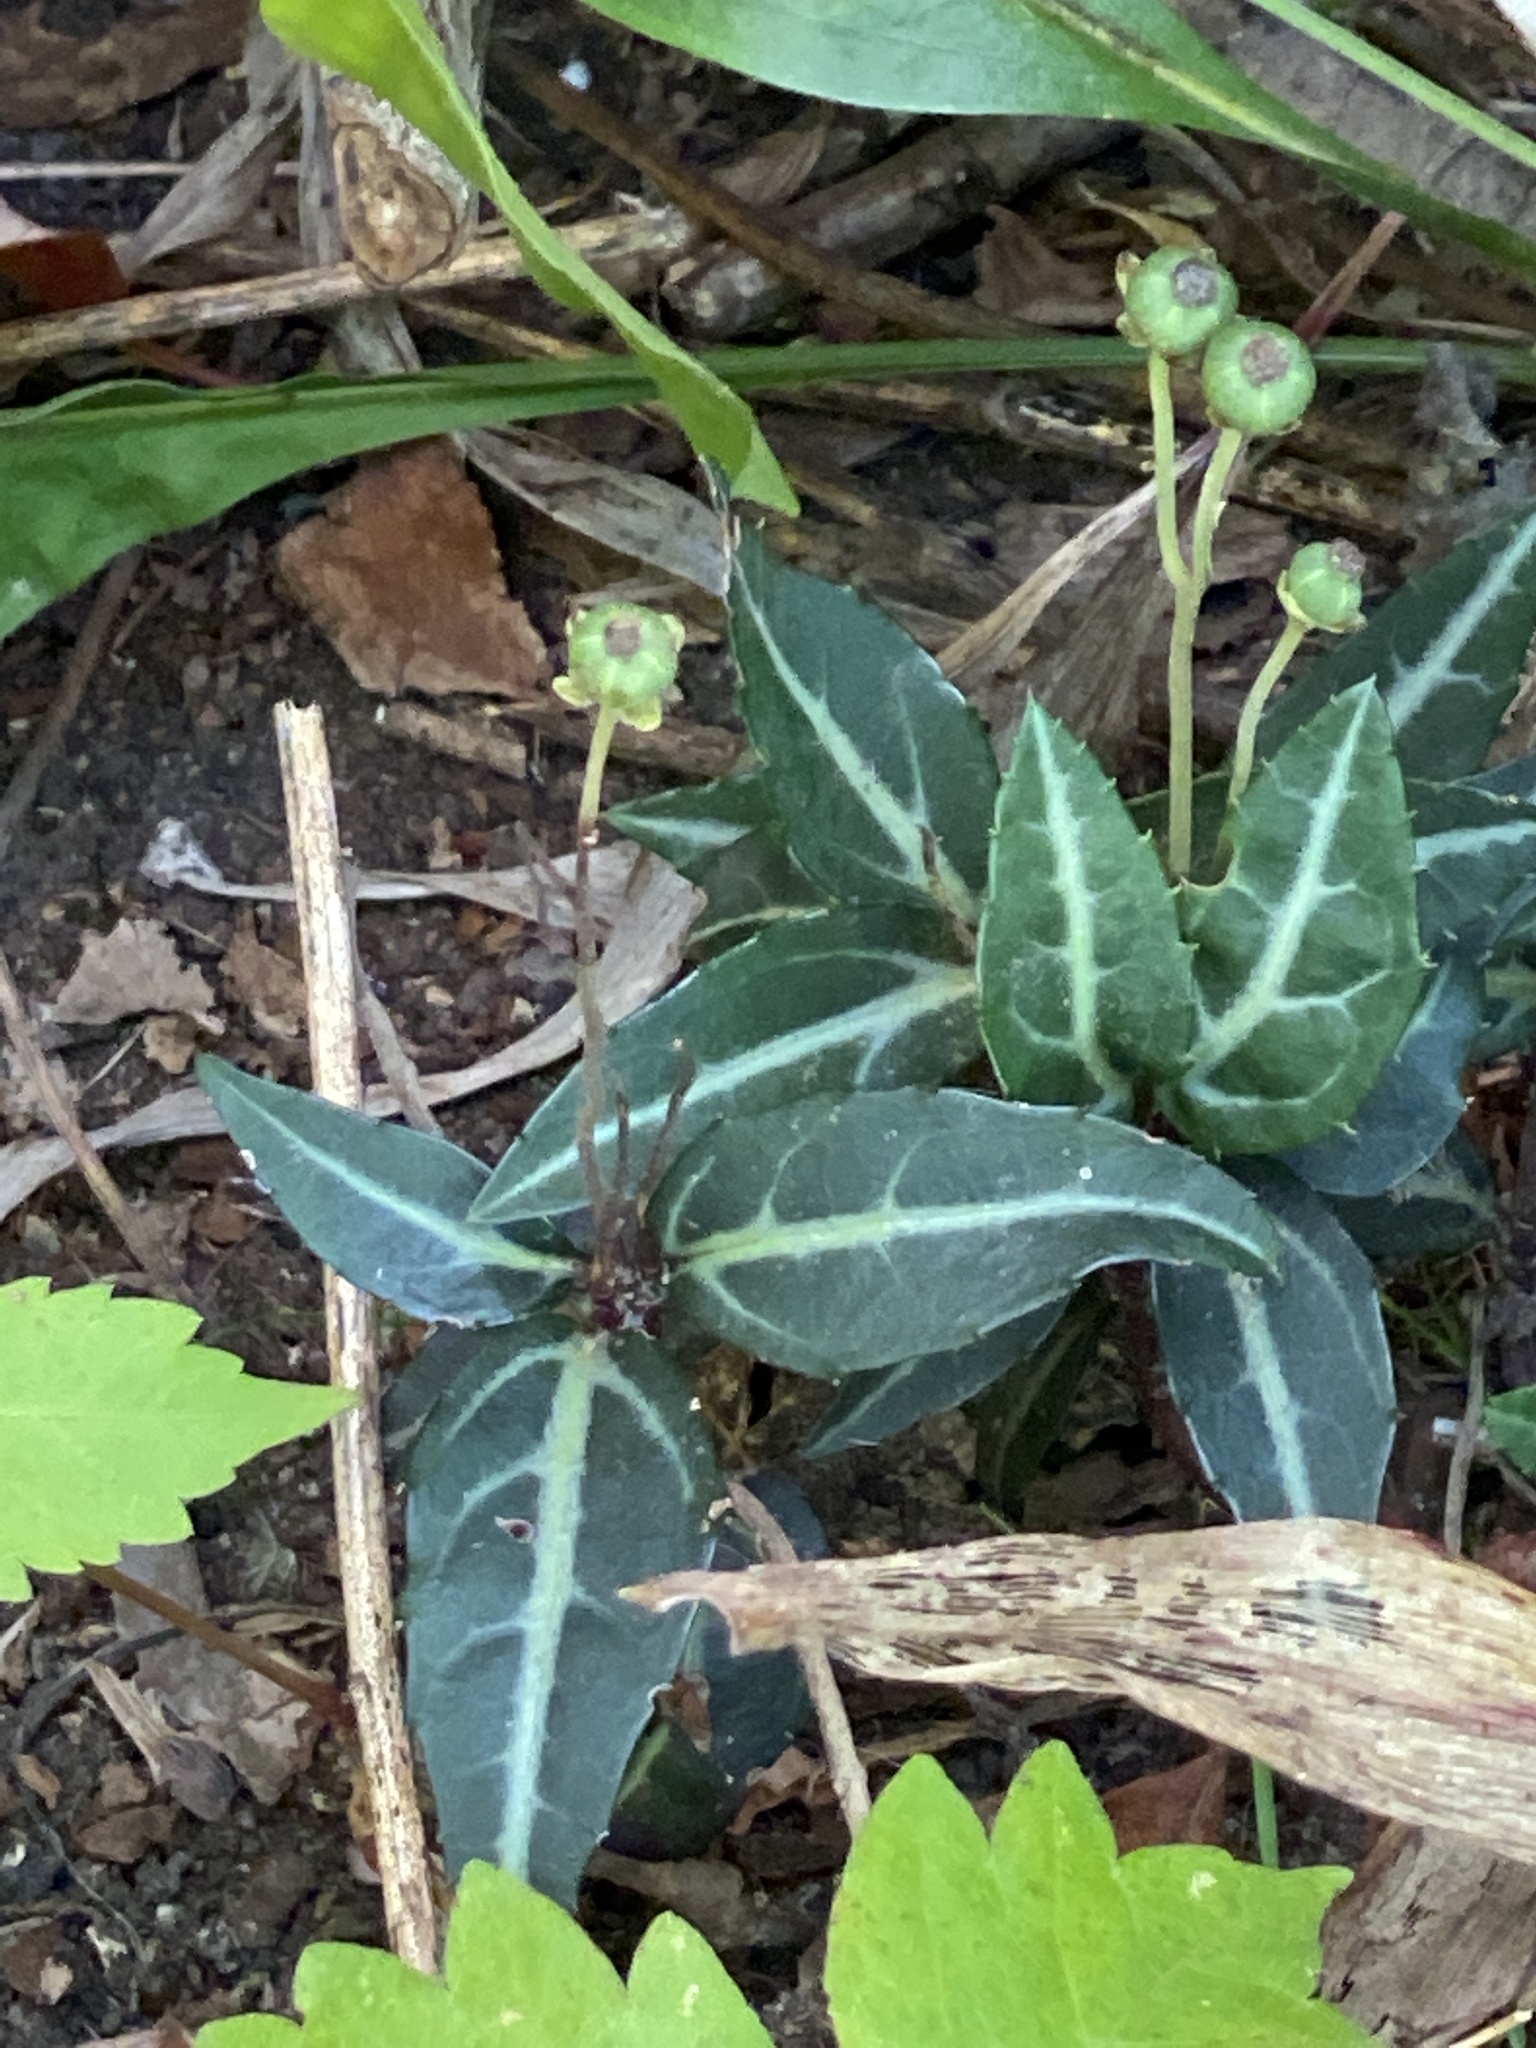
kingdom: Plantae
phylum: Tracheophyta
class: Magnoliopsida
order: Ericales
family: Ericaceae
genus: Chimaphila
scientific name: Chimaphila maculata
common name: Spotted pipsissewa
